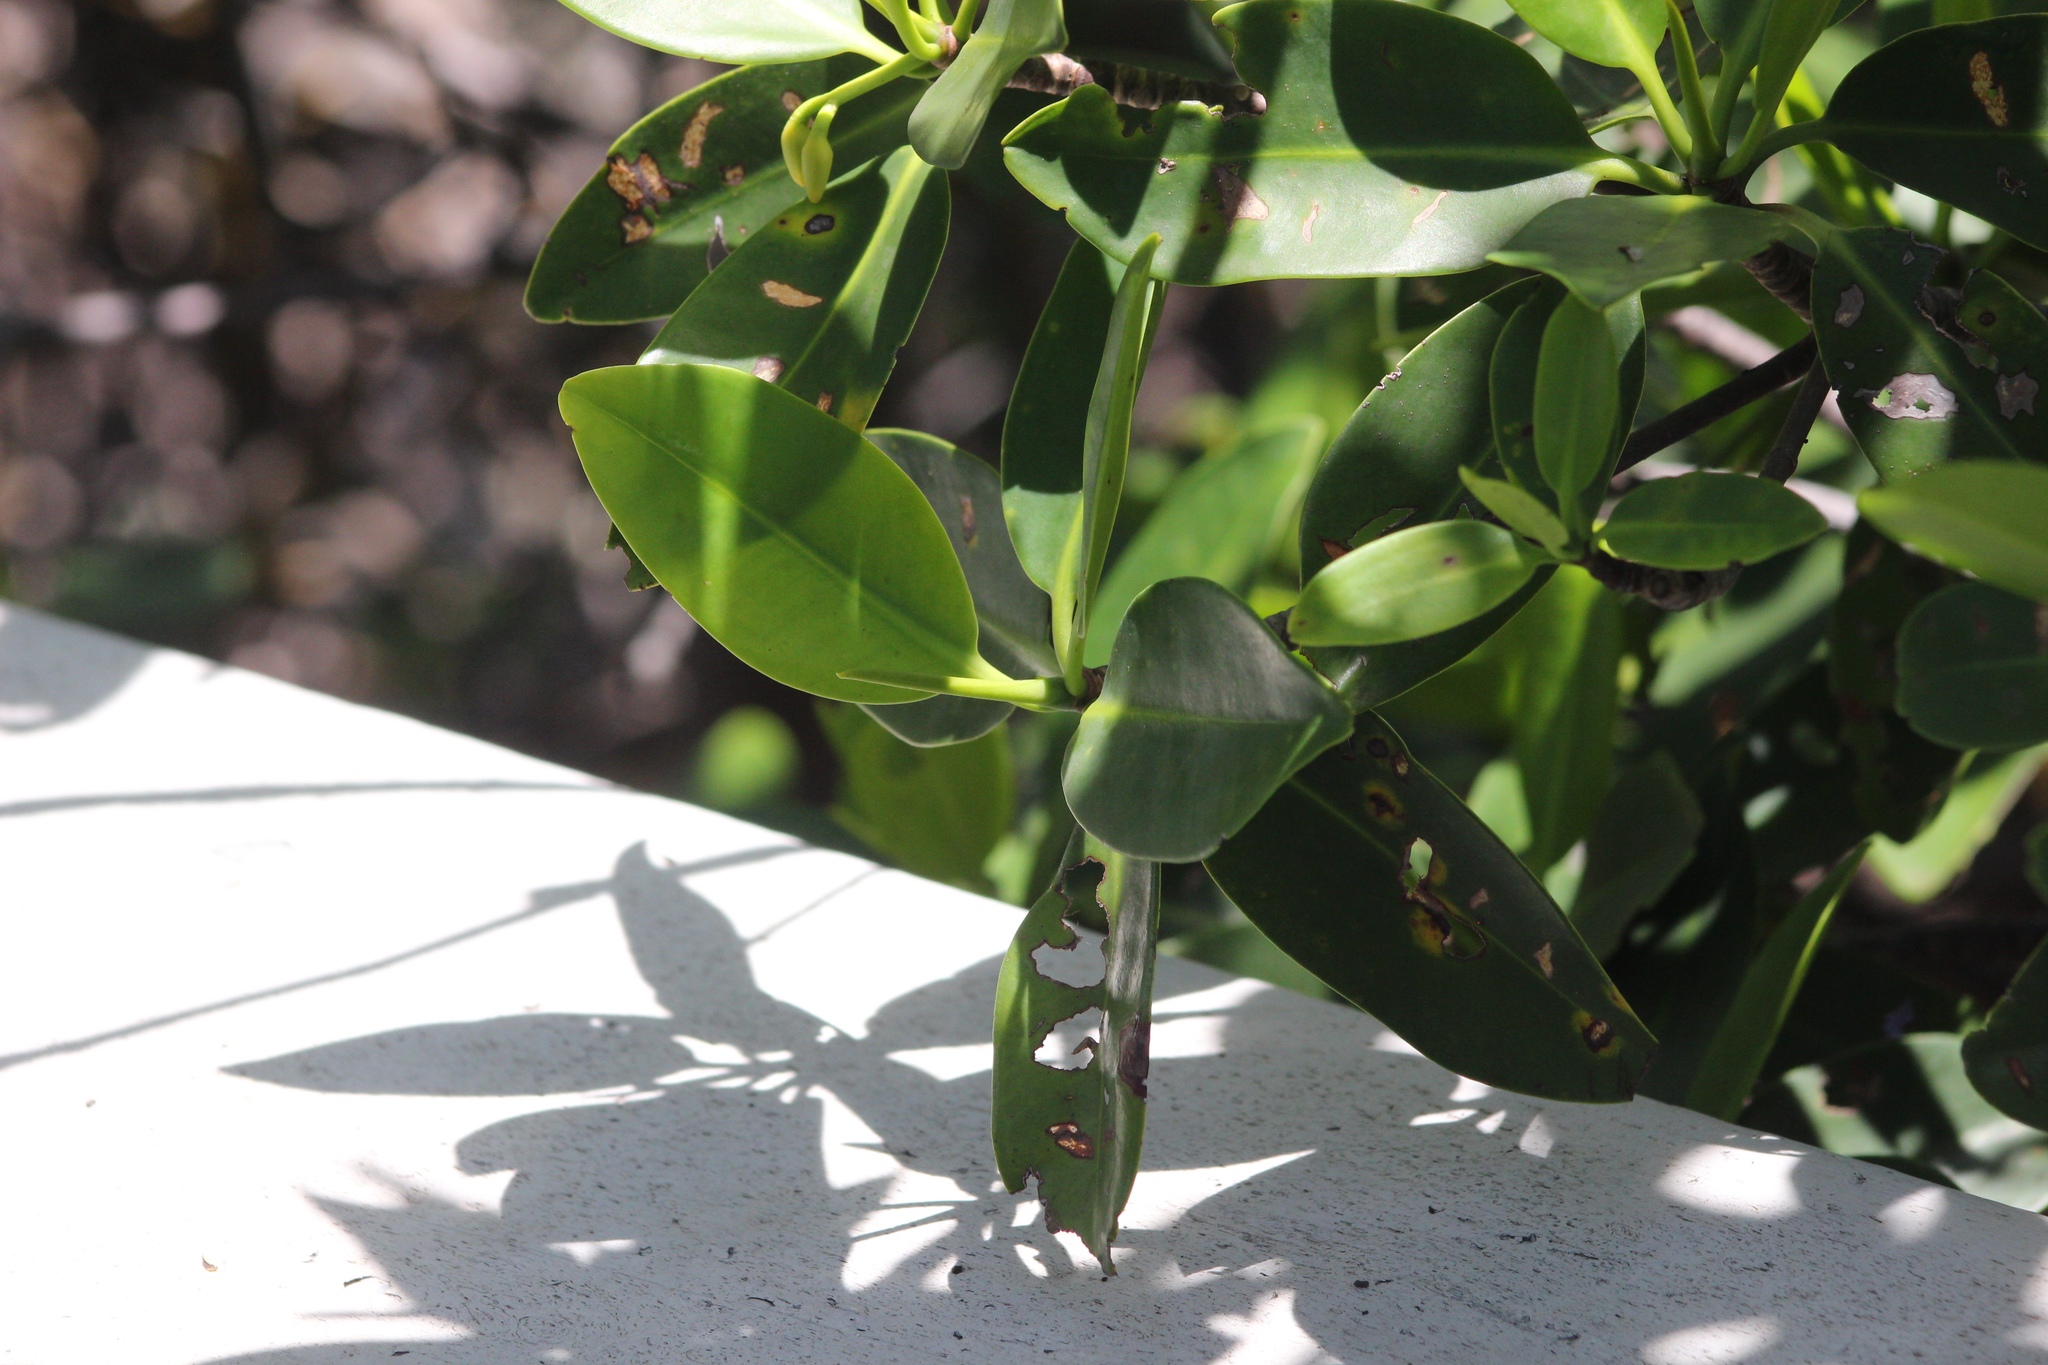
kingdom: Plantae
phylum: Tracheophyta
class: Magnoliopsida
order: Malpighiales
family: Rhizophoraceae
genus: Rhizophora
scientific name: Rhizophora mangle
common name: Red mangrove
